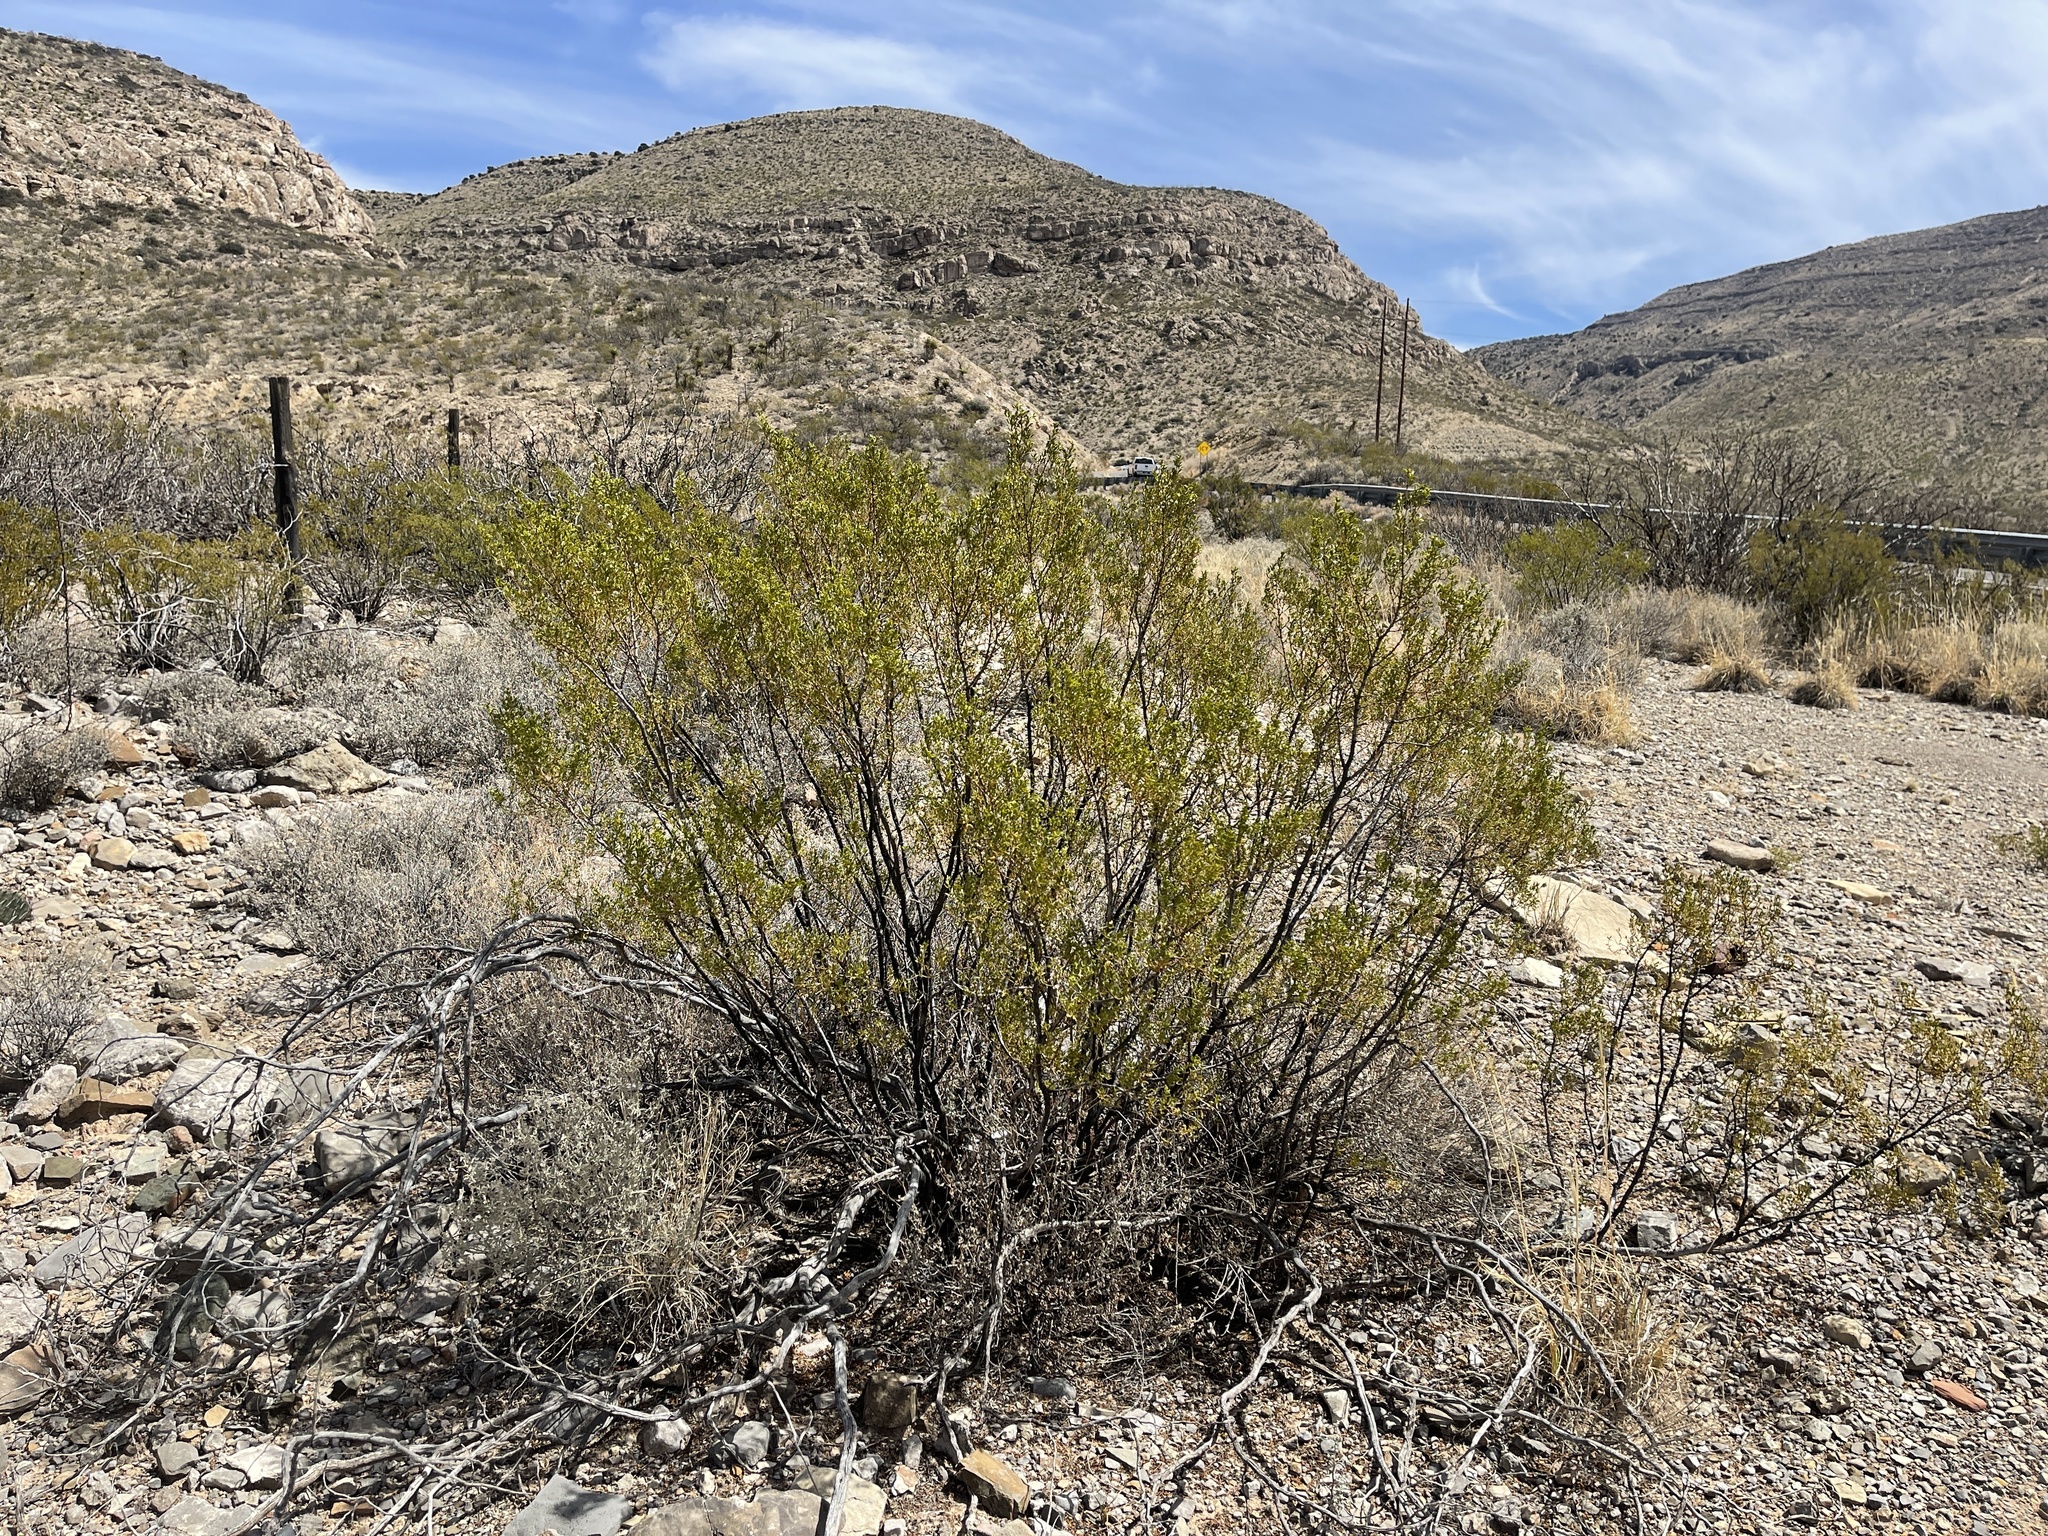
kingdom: Plantae
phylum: Tracheophyta
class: Magnoliopsida
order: Zygophyllales
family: Zygophyllaceae
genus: Larrea
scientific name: Larrea tridentata
